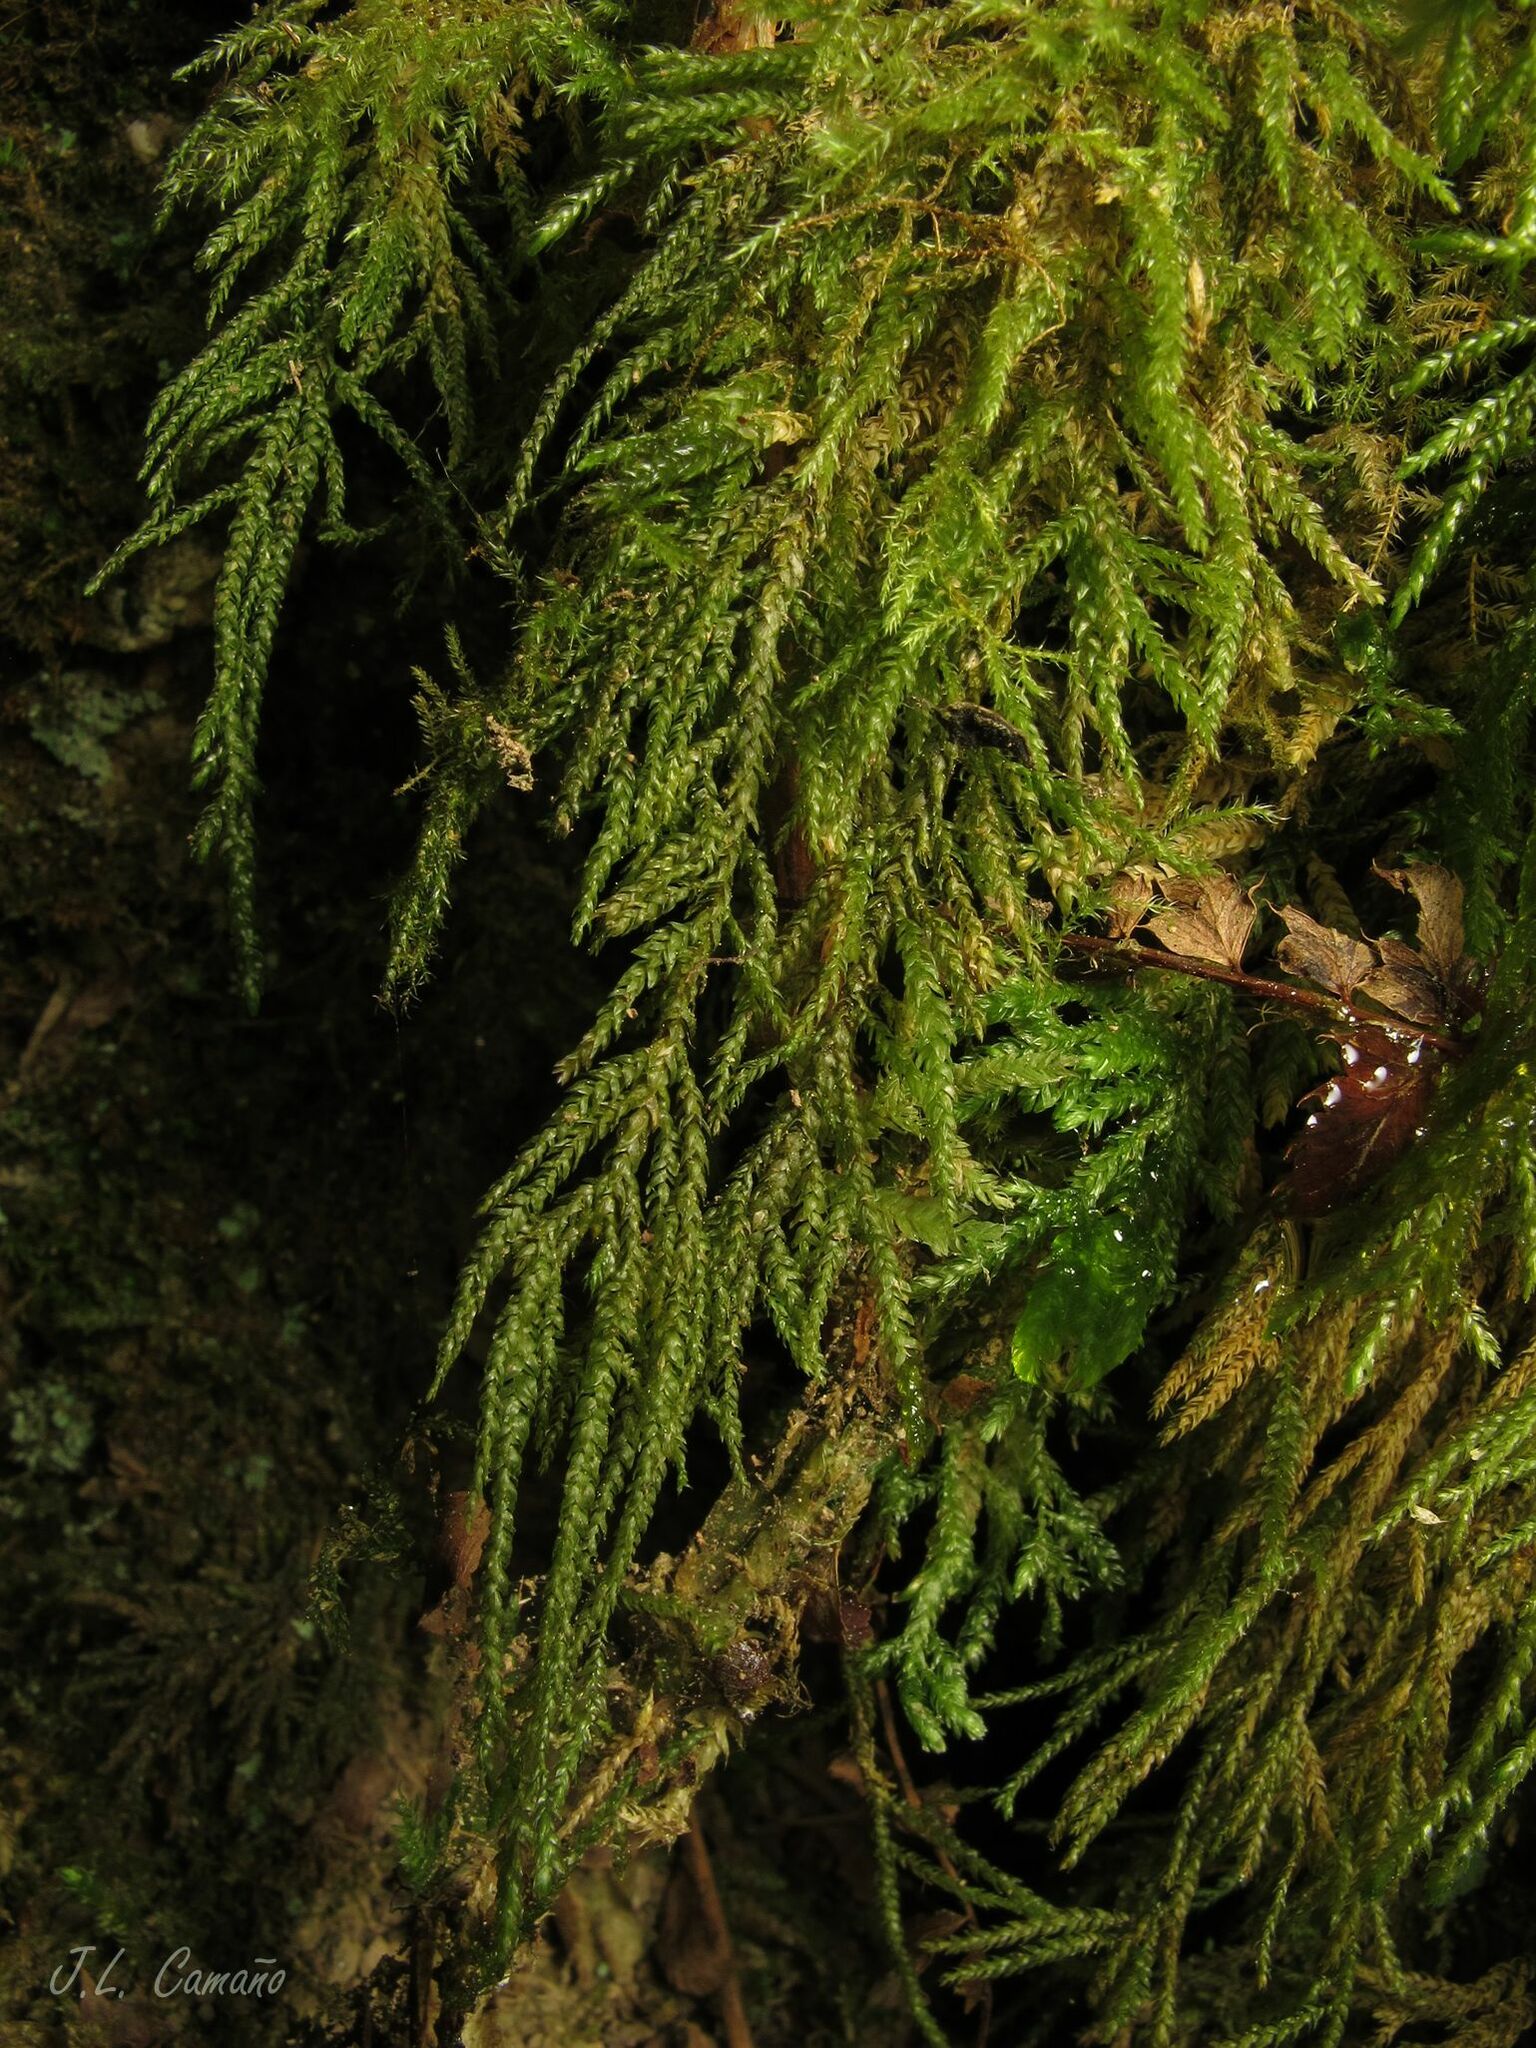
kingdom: Plantae
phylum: Bryophyta
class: Bryopsida
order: Hypnales
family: Neckeraceae
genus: Thamnobryum
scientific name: Thamnobryum alopecurum
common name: Fox-tail feather-moss
